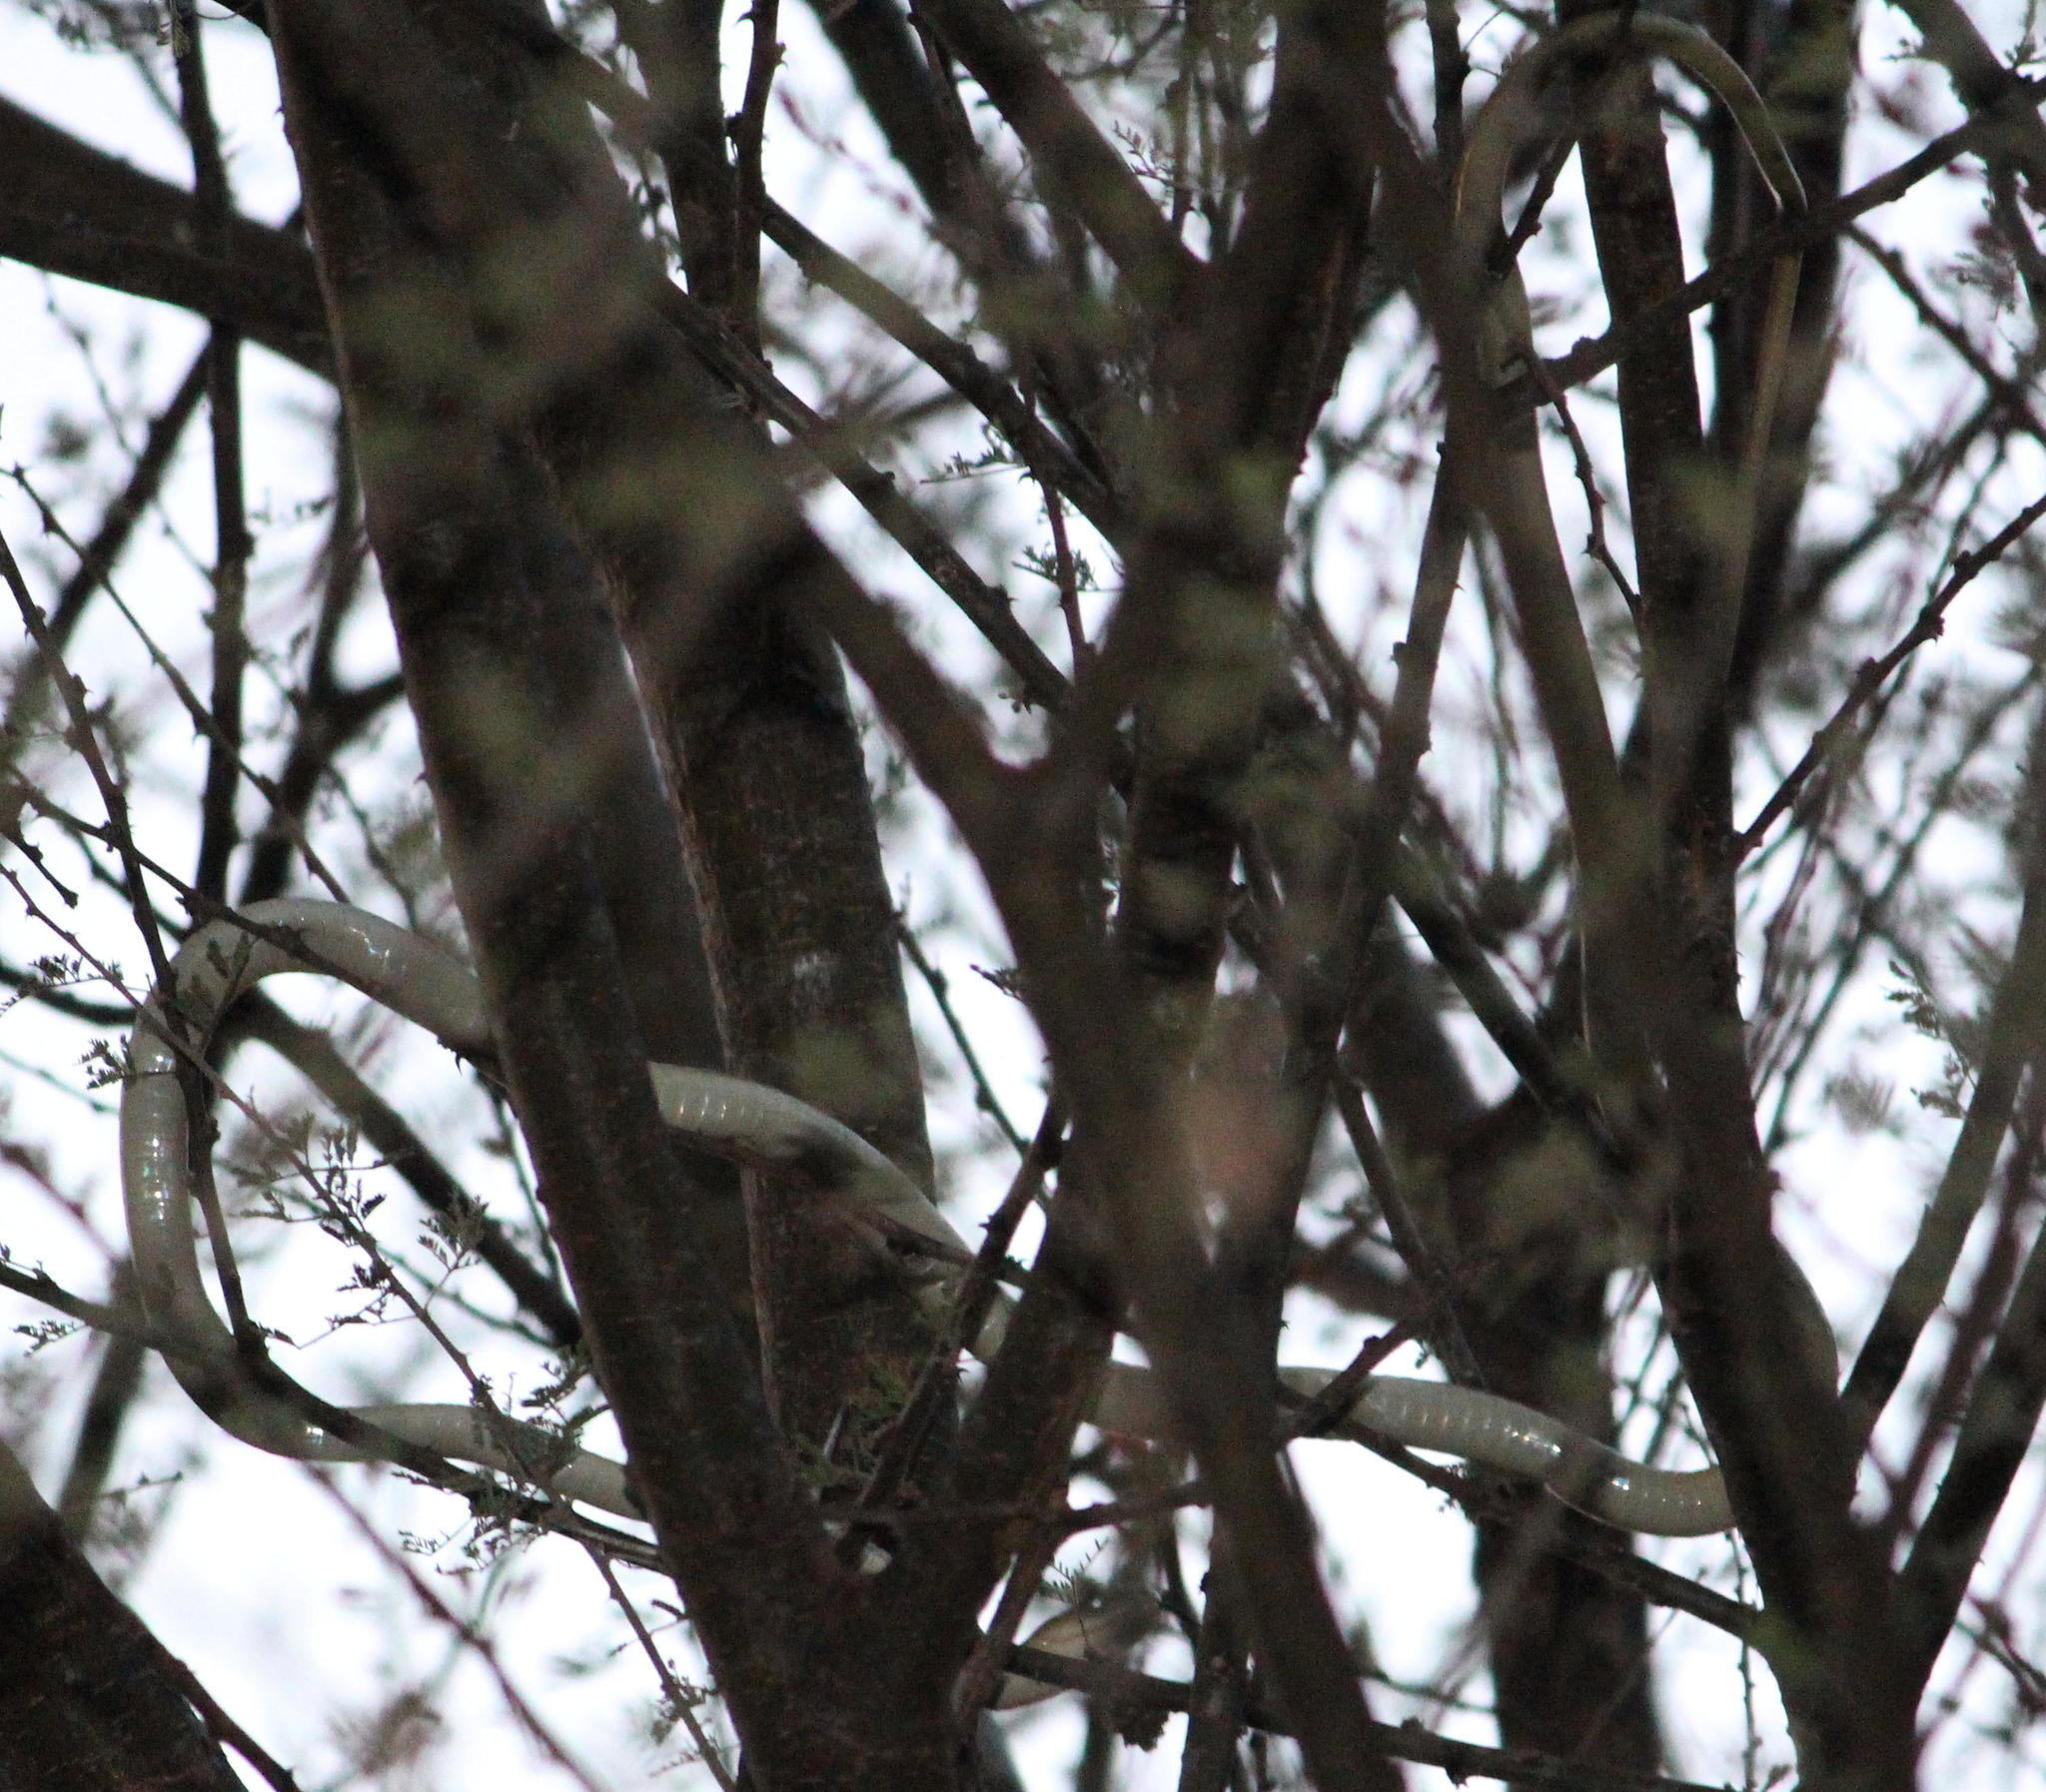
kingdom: Animalia
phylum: Chordata
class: Squamata
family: Elapidae
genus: Dendroaspis
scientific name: Dendroaspis polylepis
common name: Black mamba
